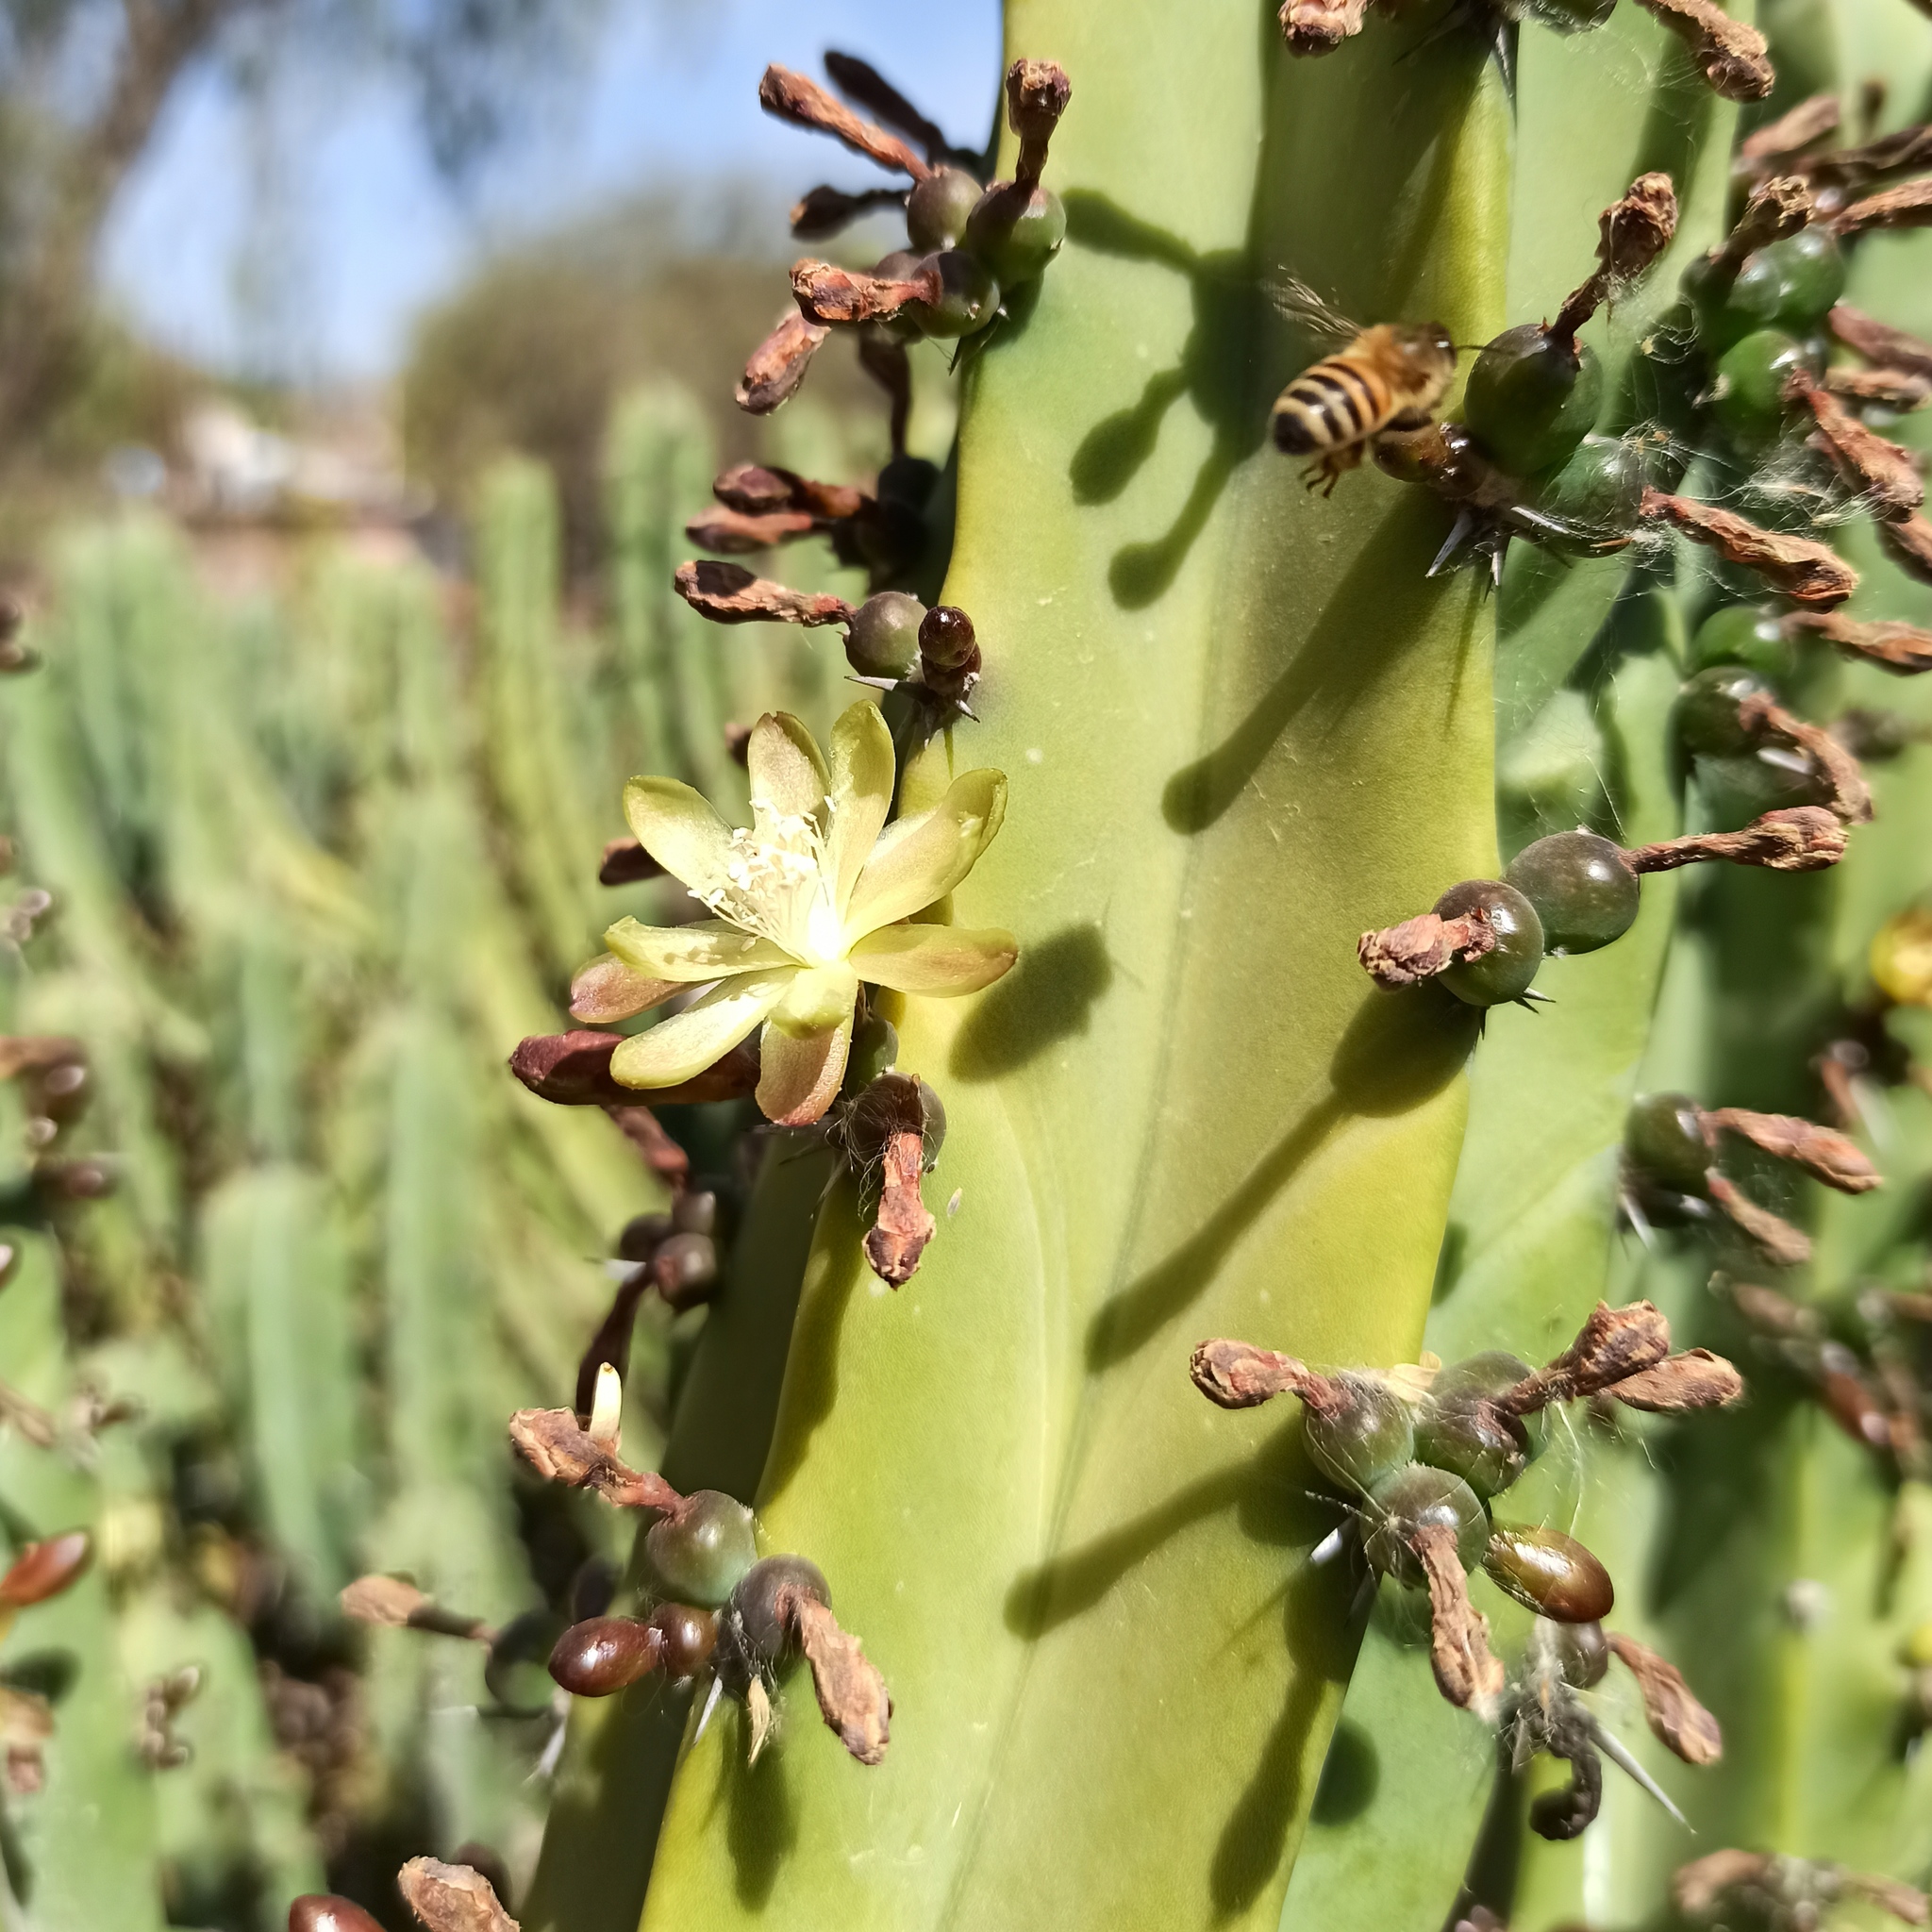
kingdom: Plantae
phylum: Tracheophyta
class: Magnoliopsida
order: Caryophyllales
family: Cactaceae
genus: Myrtillocactus
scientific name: Myrtillocactus geometrizans
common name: Bilberry cactus
